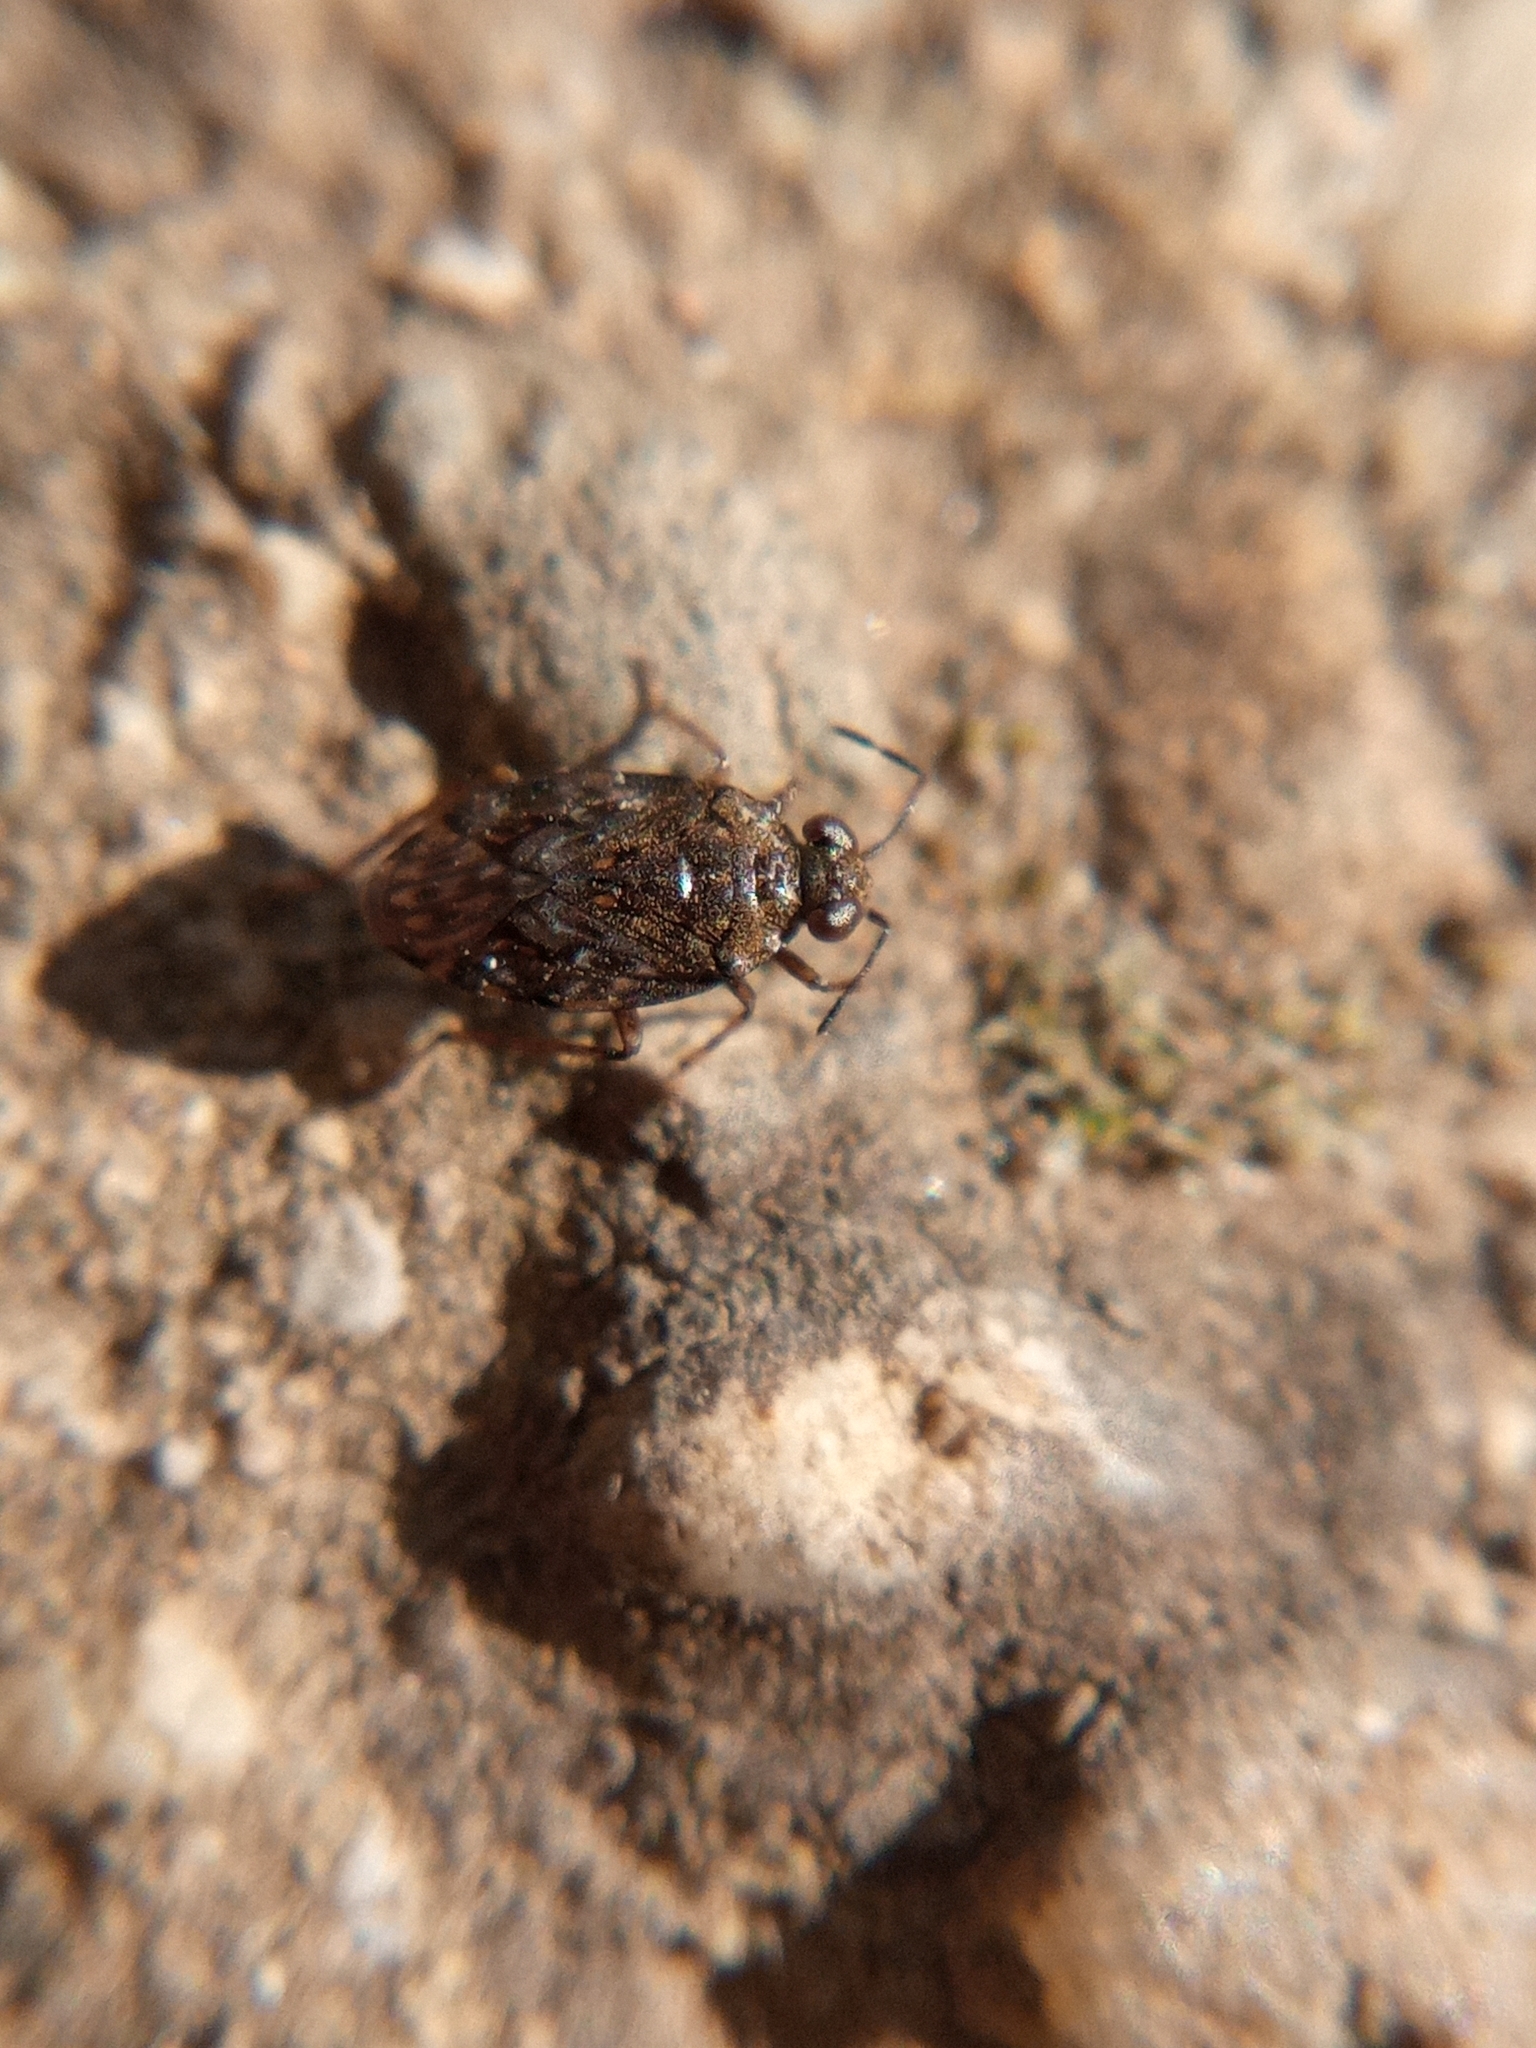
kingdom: Animalia
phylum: Arthropoda
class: Insecta
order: Hemiptera
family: Saldidae
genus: Saldula
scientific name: Saldula saltatoria
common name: Common shorebug
